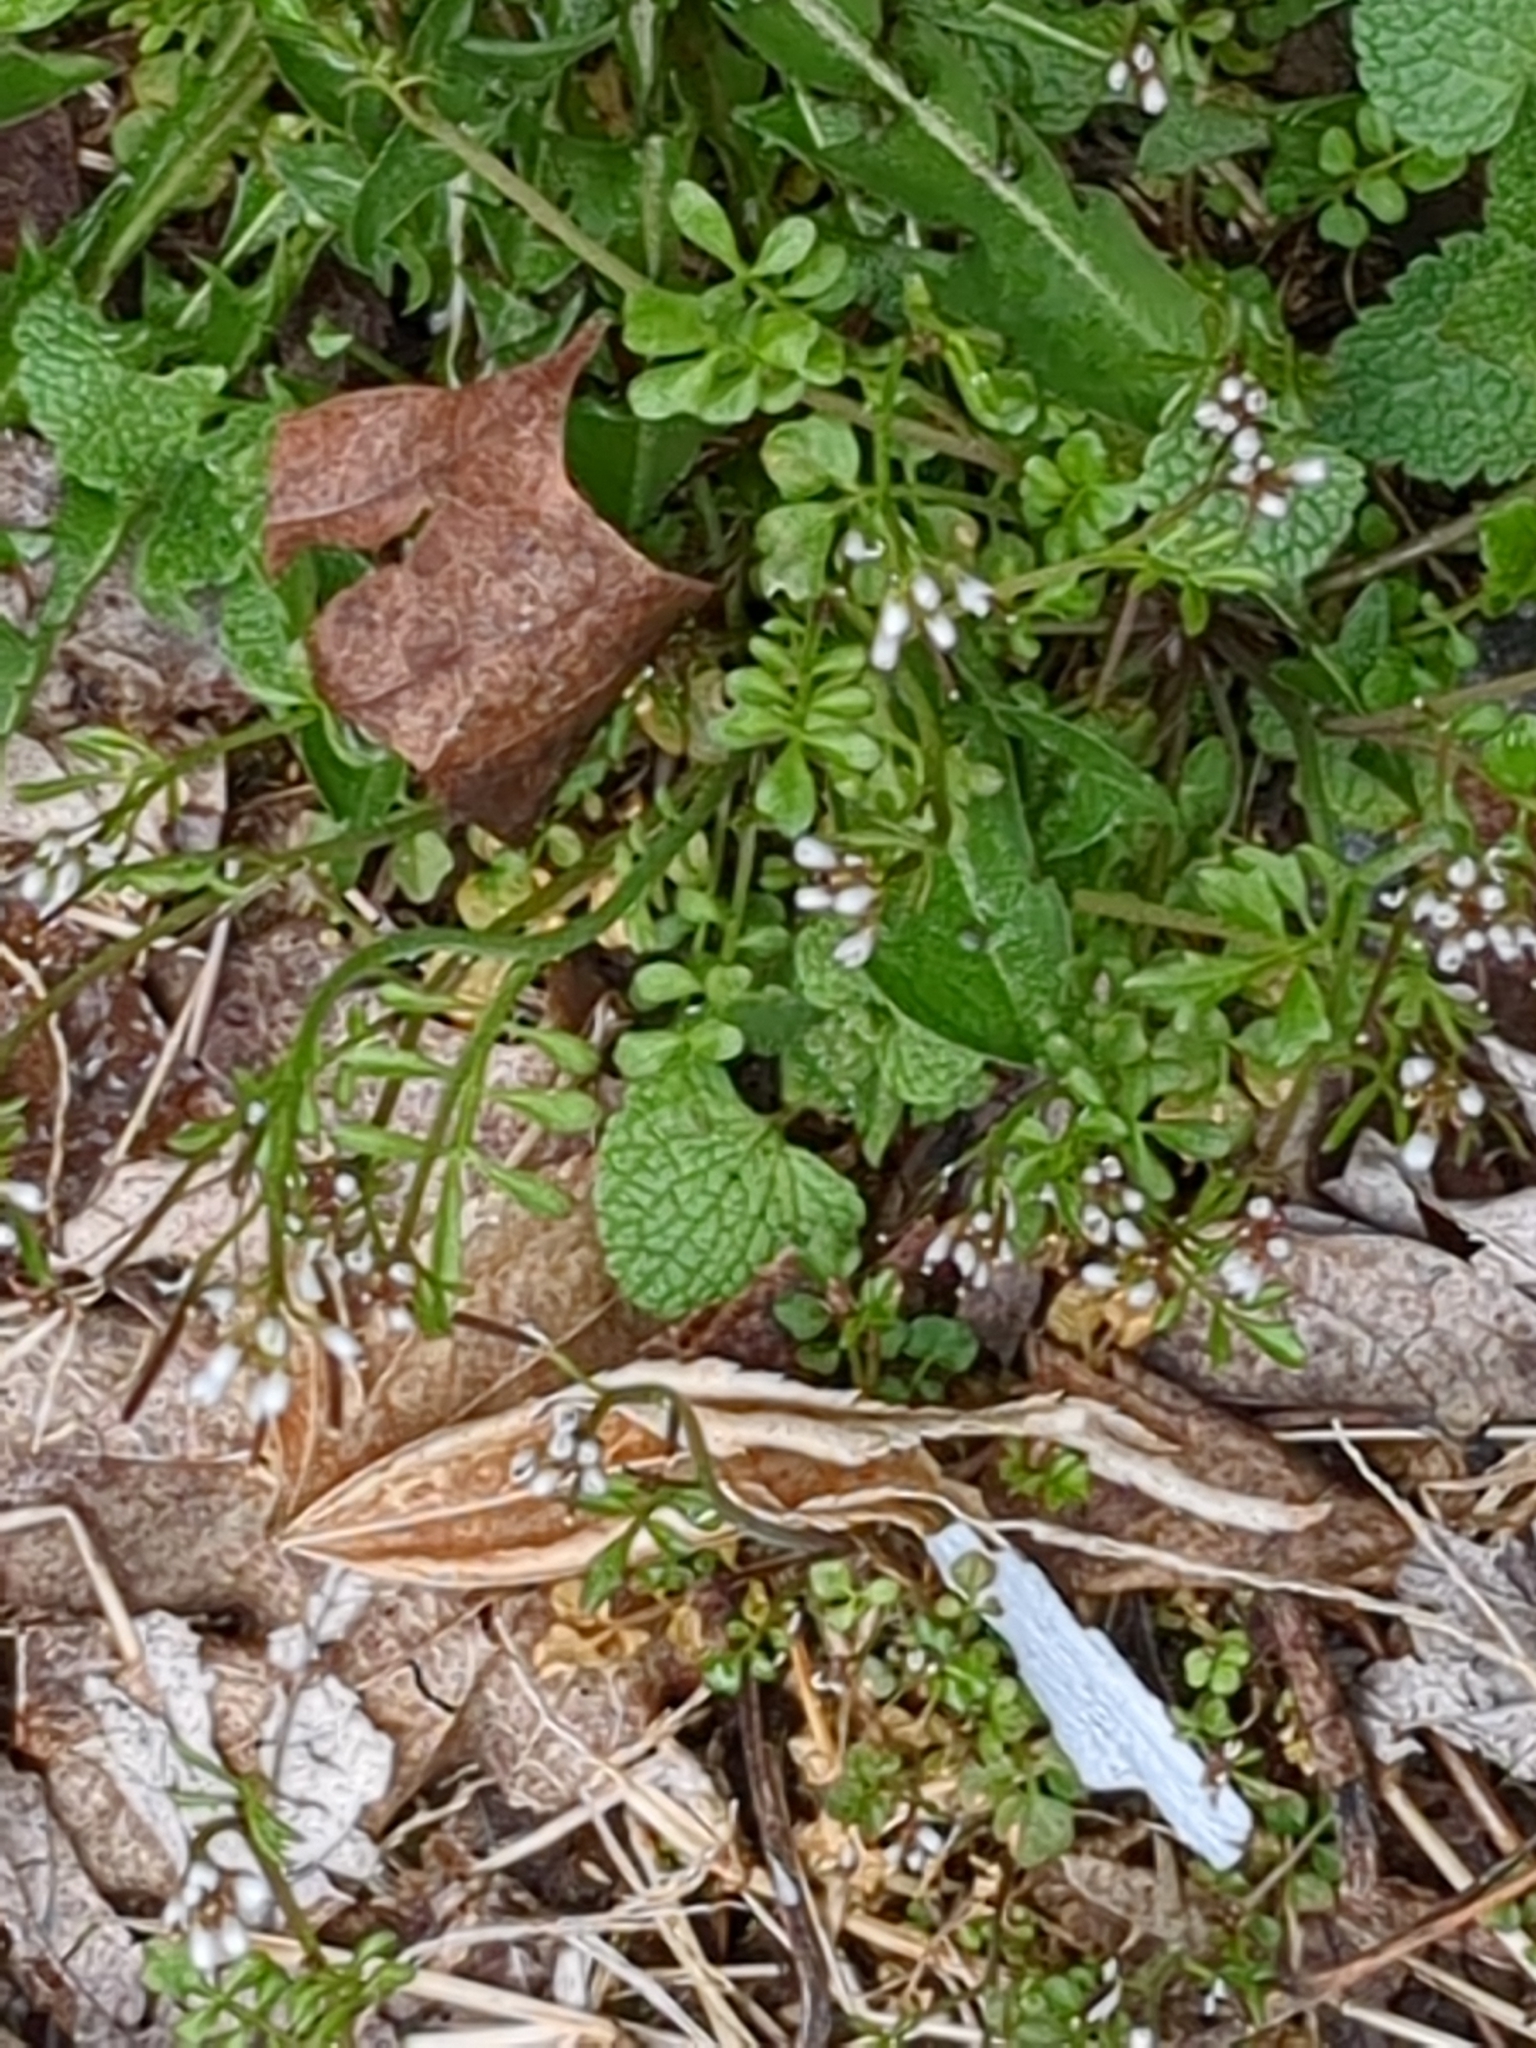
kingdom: Plantae
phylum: Tracheophyta
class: Magnoliopsida
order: Brassicales
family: Brassicaceae
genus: Cardamine
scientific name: Cardamine hirsuta
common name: Hairy bittercress
